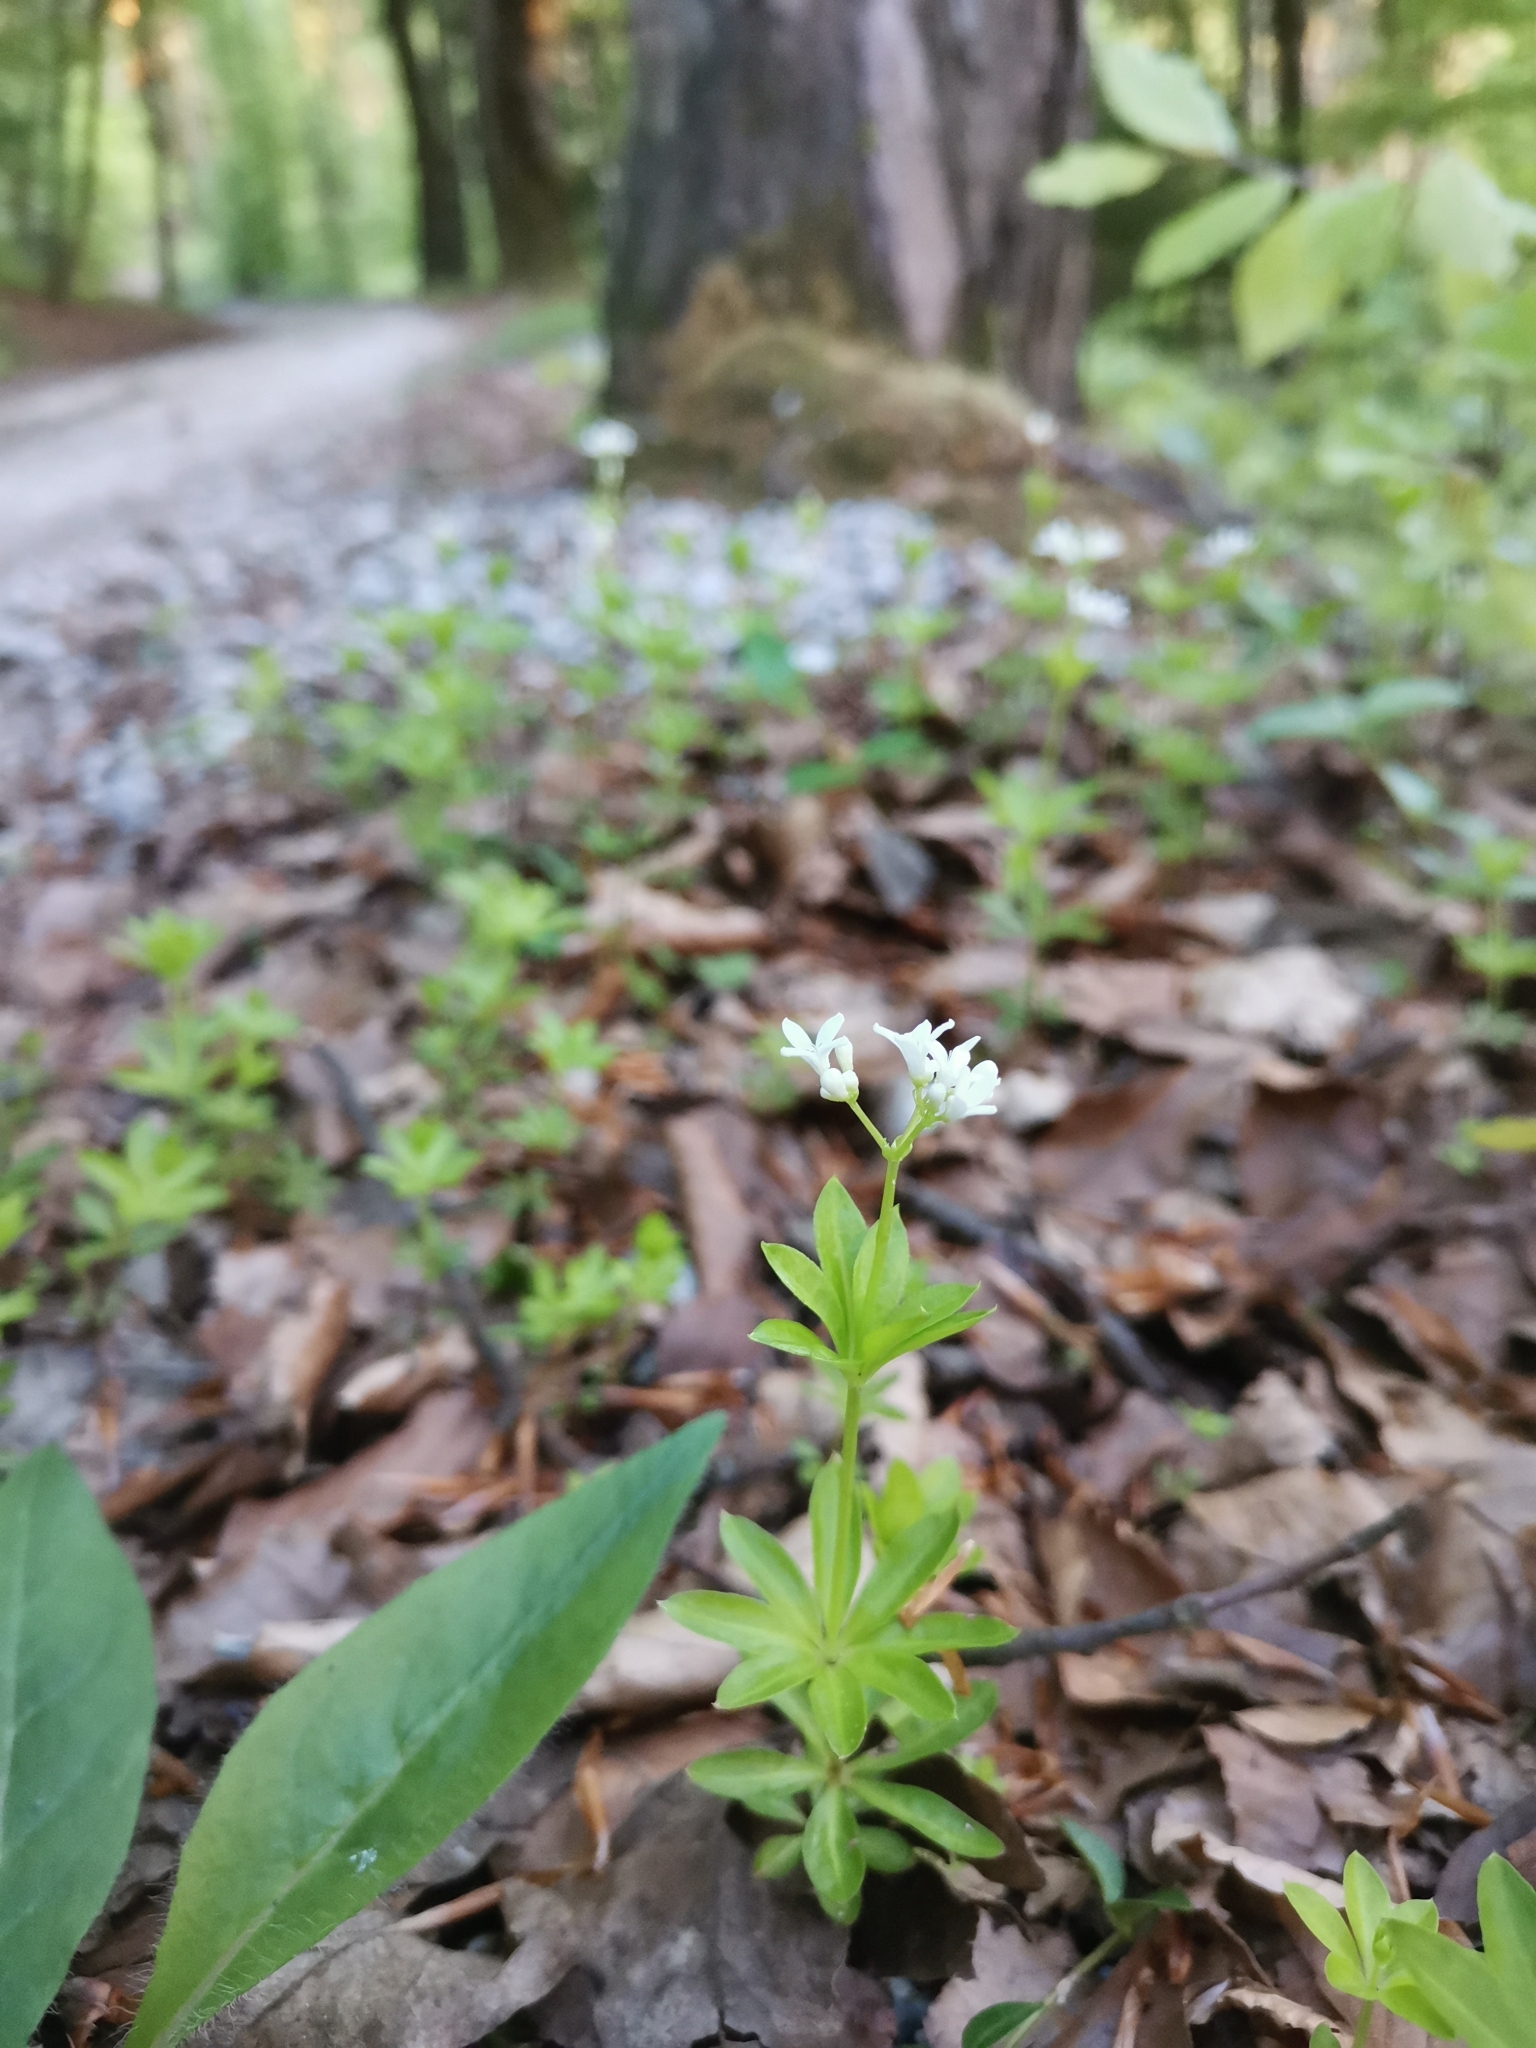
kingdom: Plantae
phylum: Tracheophyta
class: Magnoliopsida
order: Gentianales
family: Rubiaceae
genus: Galium
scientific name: Galium odoratum
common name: Sweet woodruff
